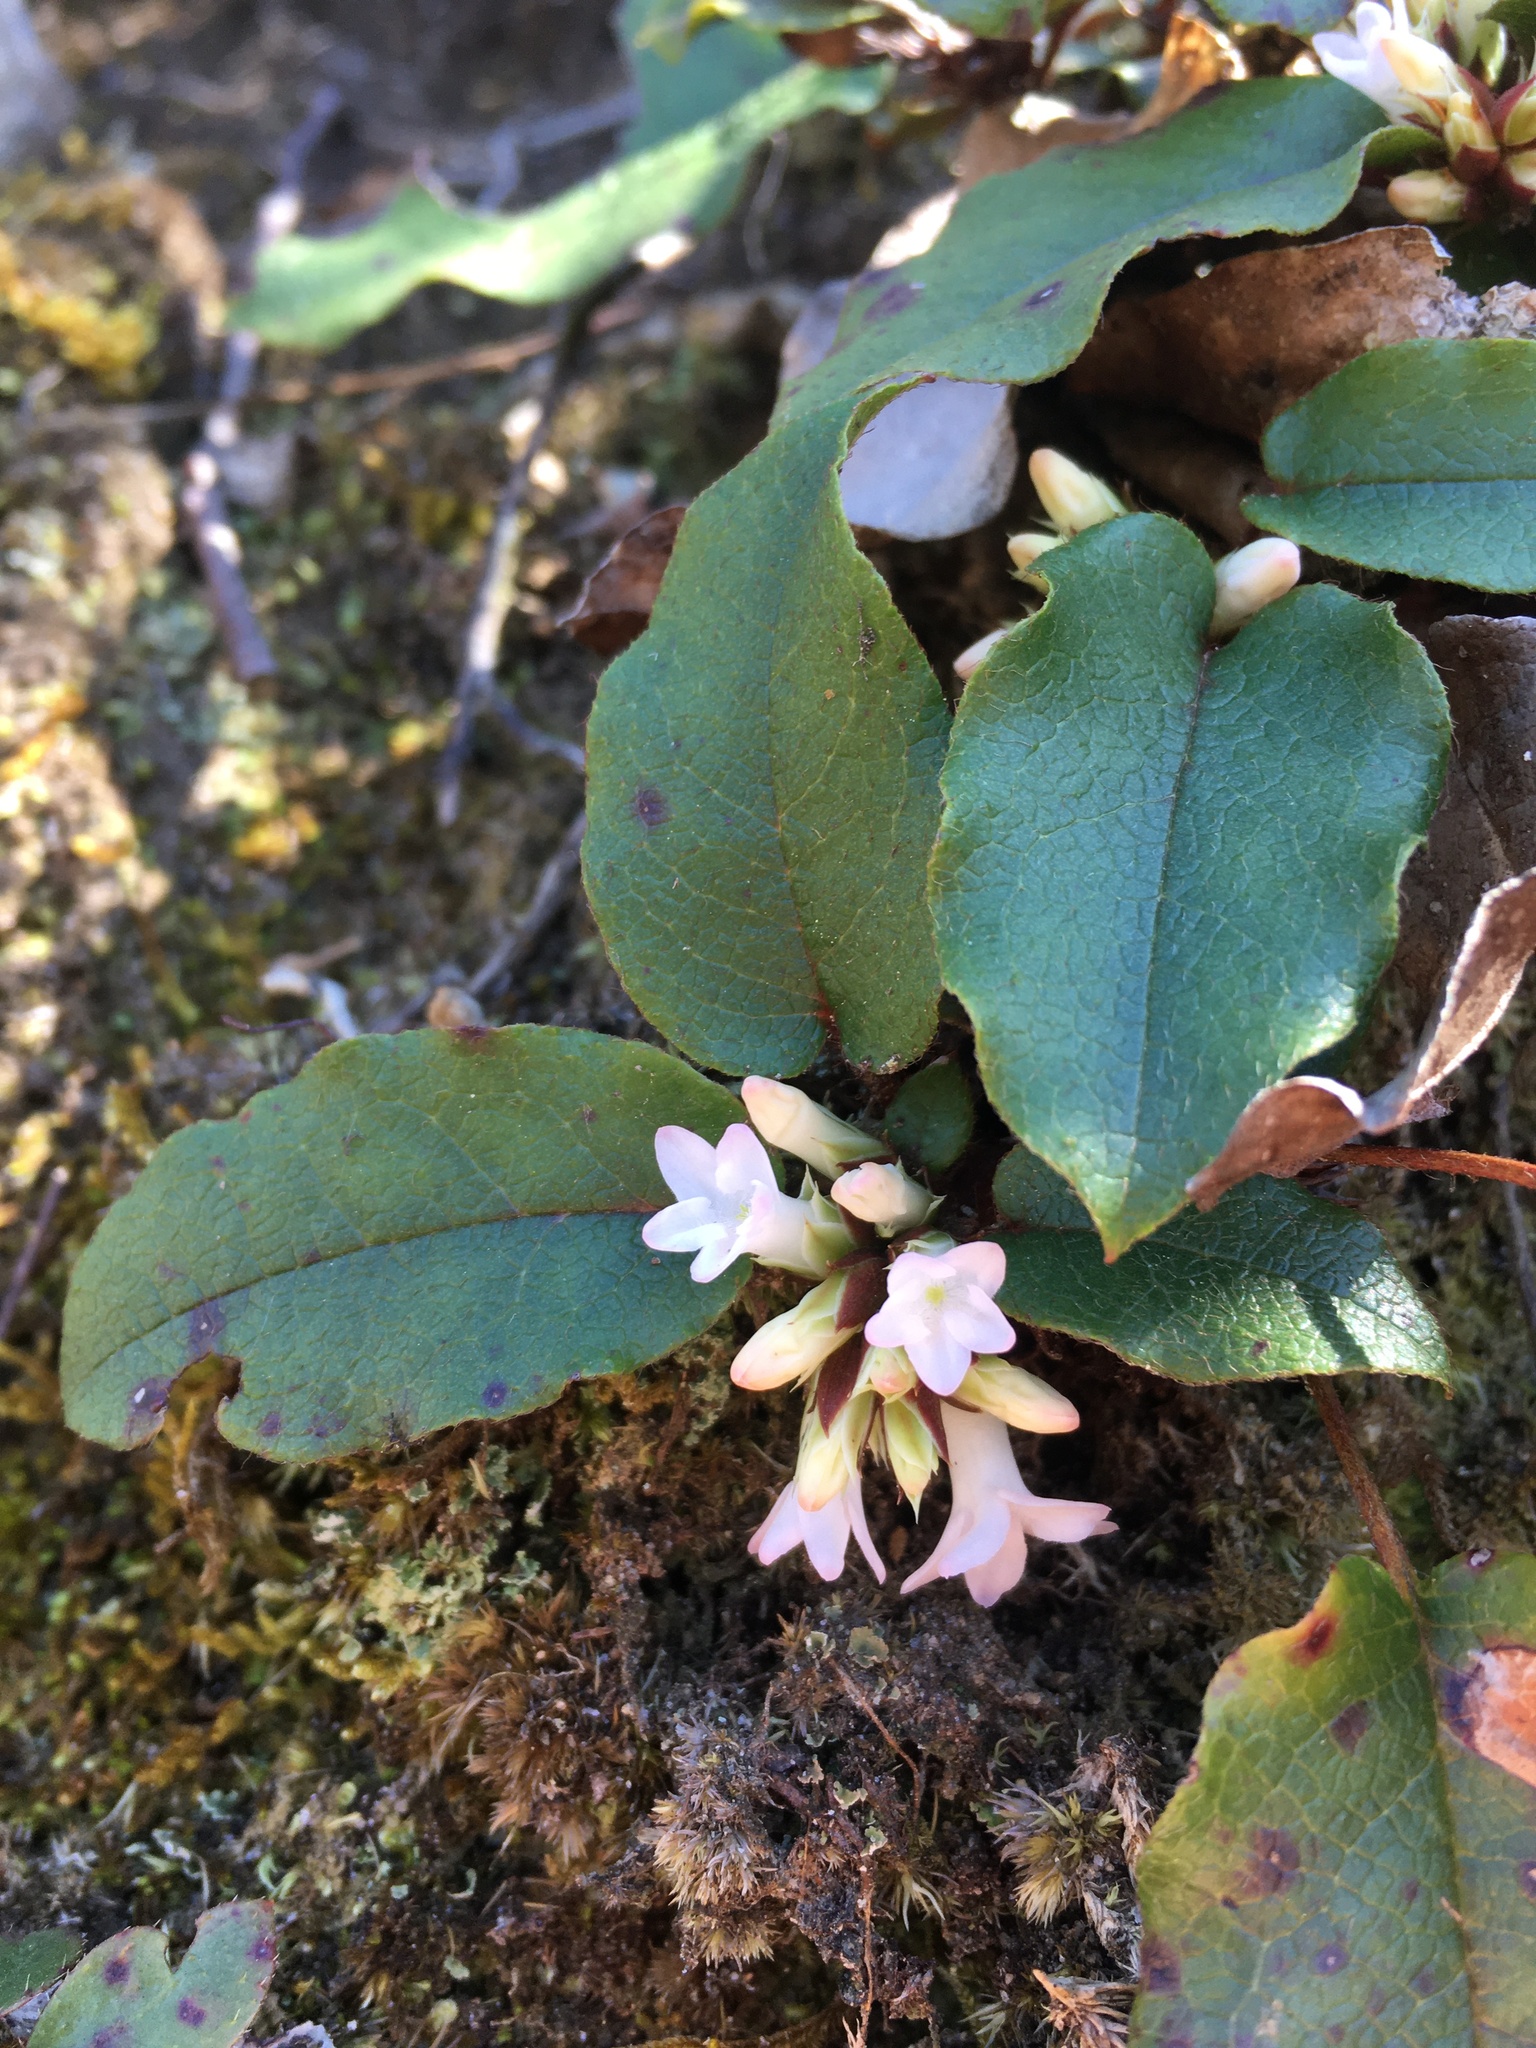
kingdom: Plantae
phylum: Tracheophyta
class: Magnoliopsida
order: Ericales
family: Ericaceae
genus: Epigaea
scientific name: Epigaea repens
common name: Gravelroot
